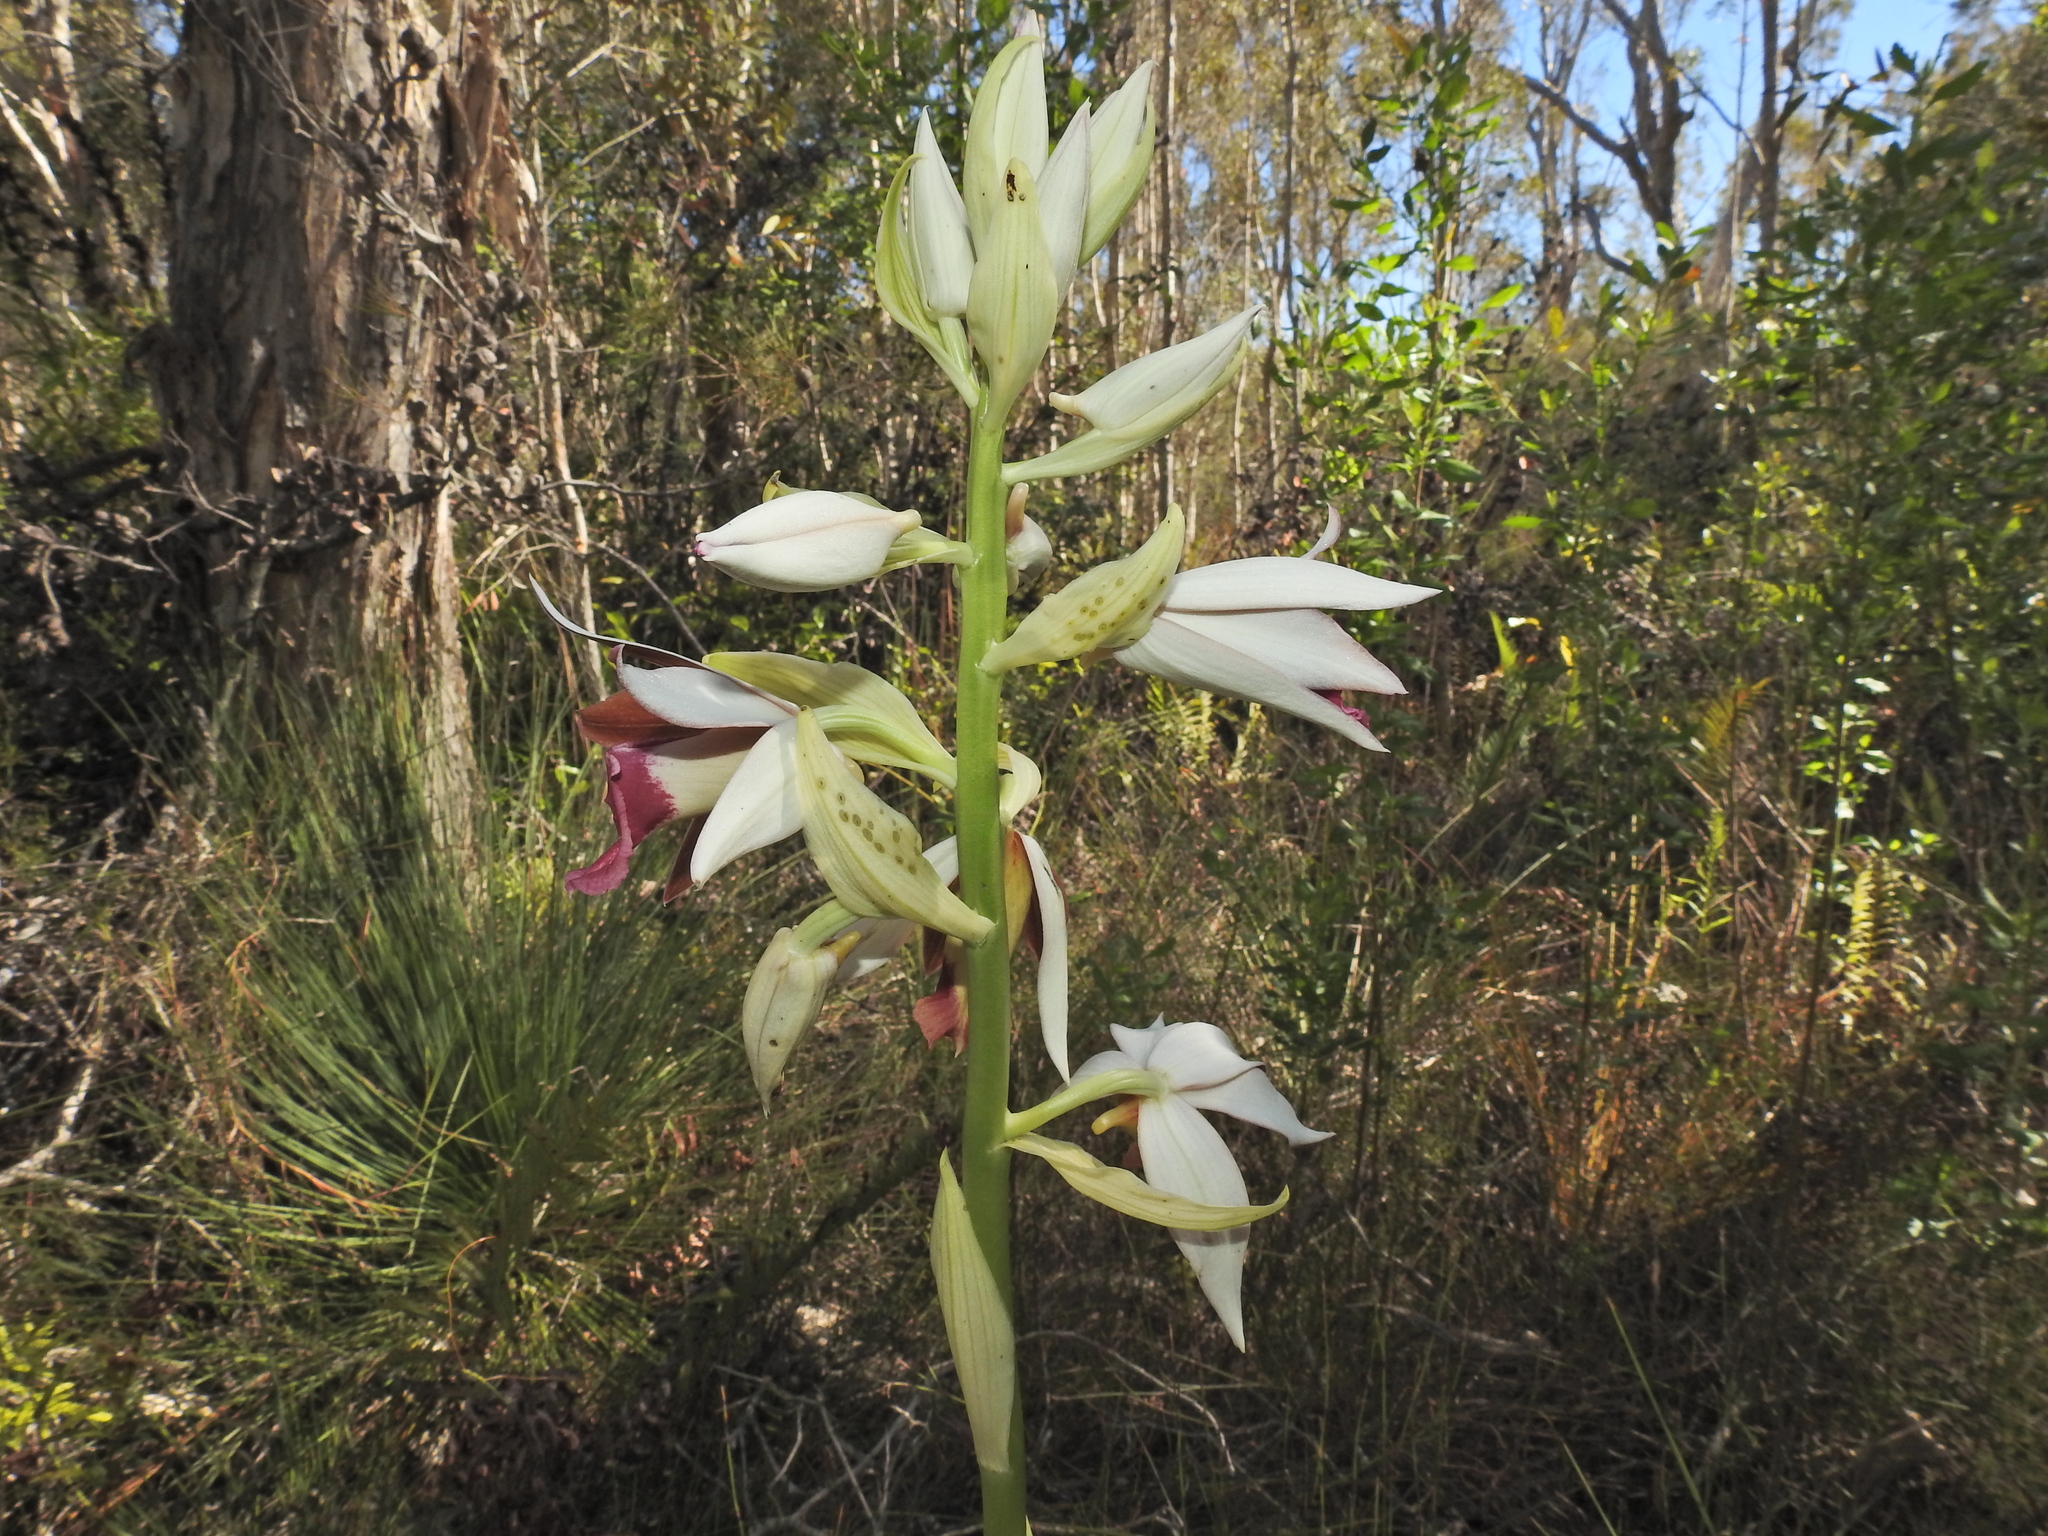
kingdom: Plantae
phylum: Tracheophyta
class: Liliopsida
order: Asparagales
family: Orchidaceae
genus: Calanthe
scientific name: Calanthe tankervilleae
